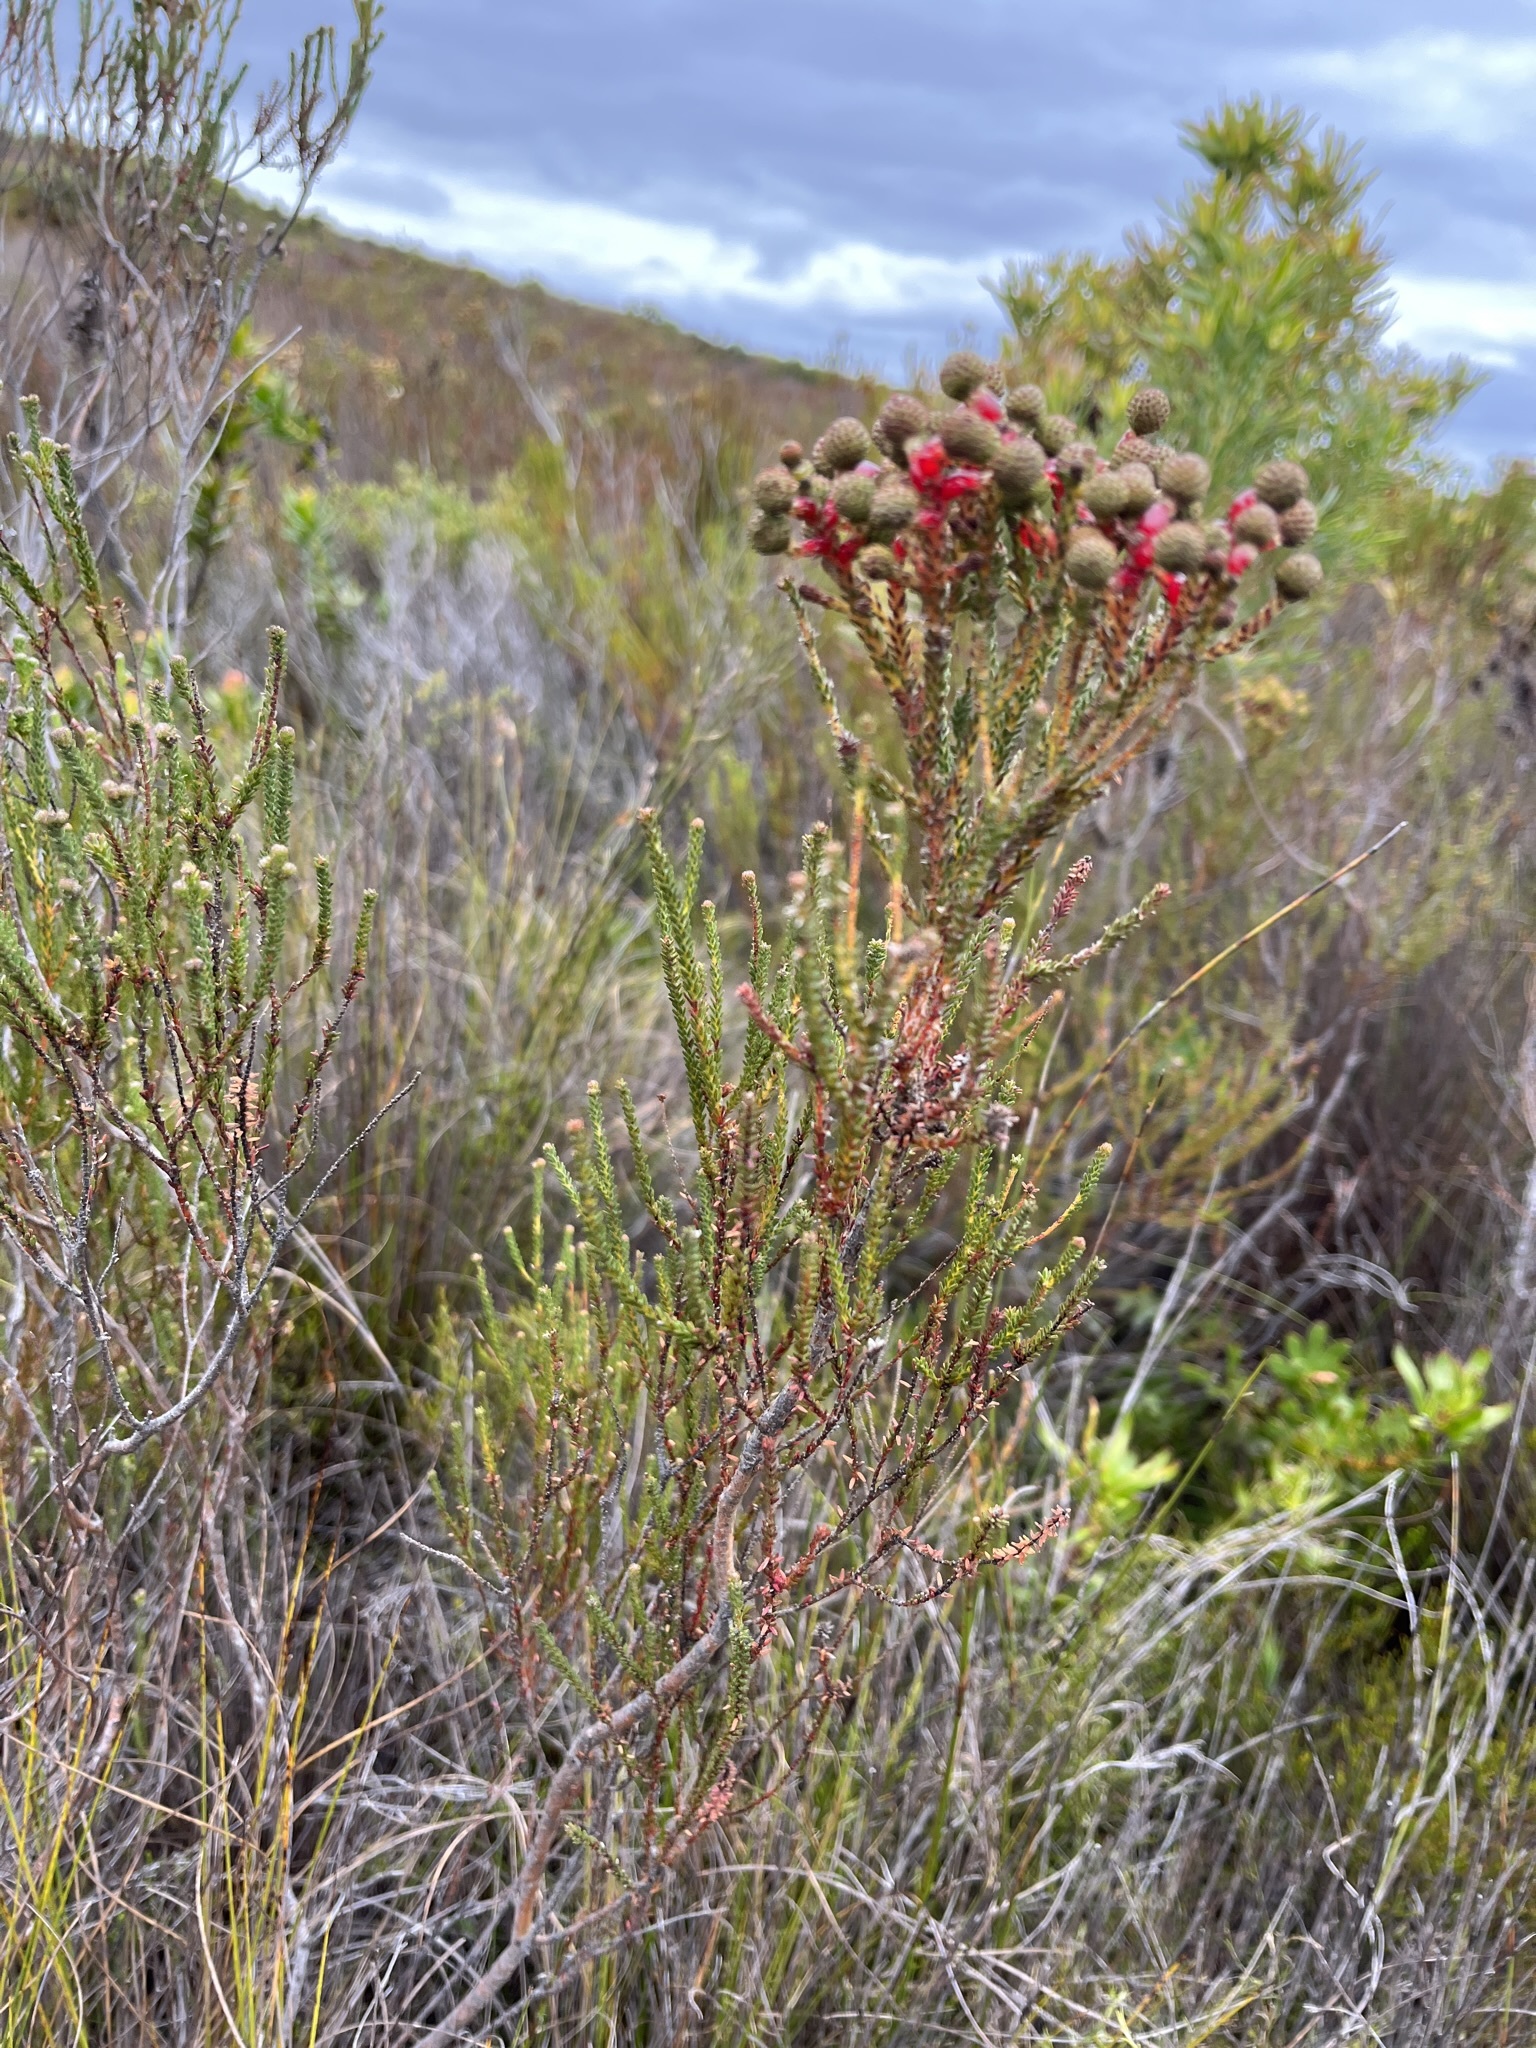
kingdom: Plantae
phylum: Tracheophyta
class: Magnoliopsida
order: Bruniales
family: Bruniaceae
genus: Berzelia
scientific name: Berzelia abrotanoides
